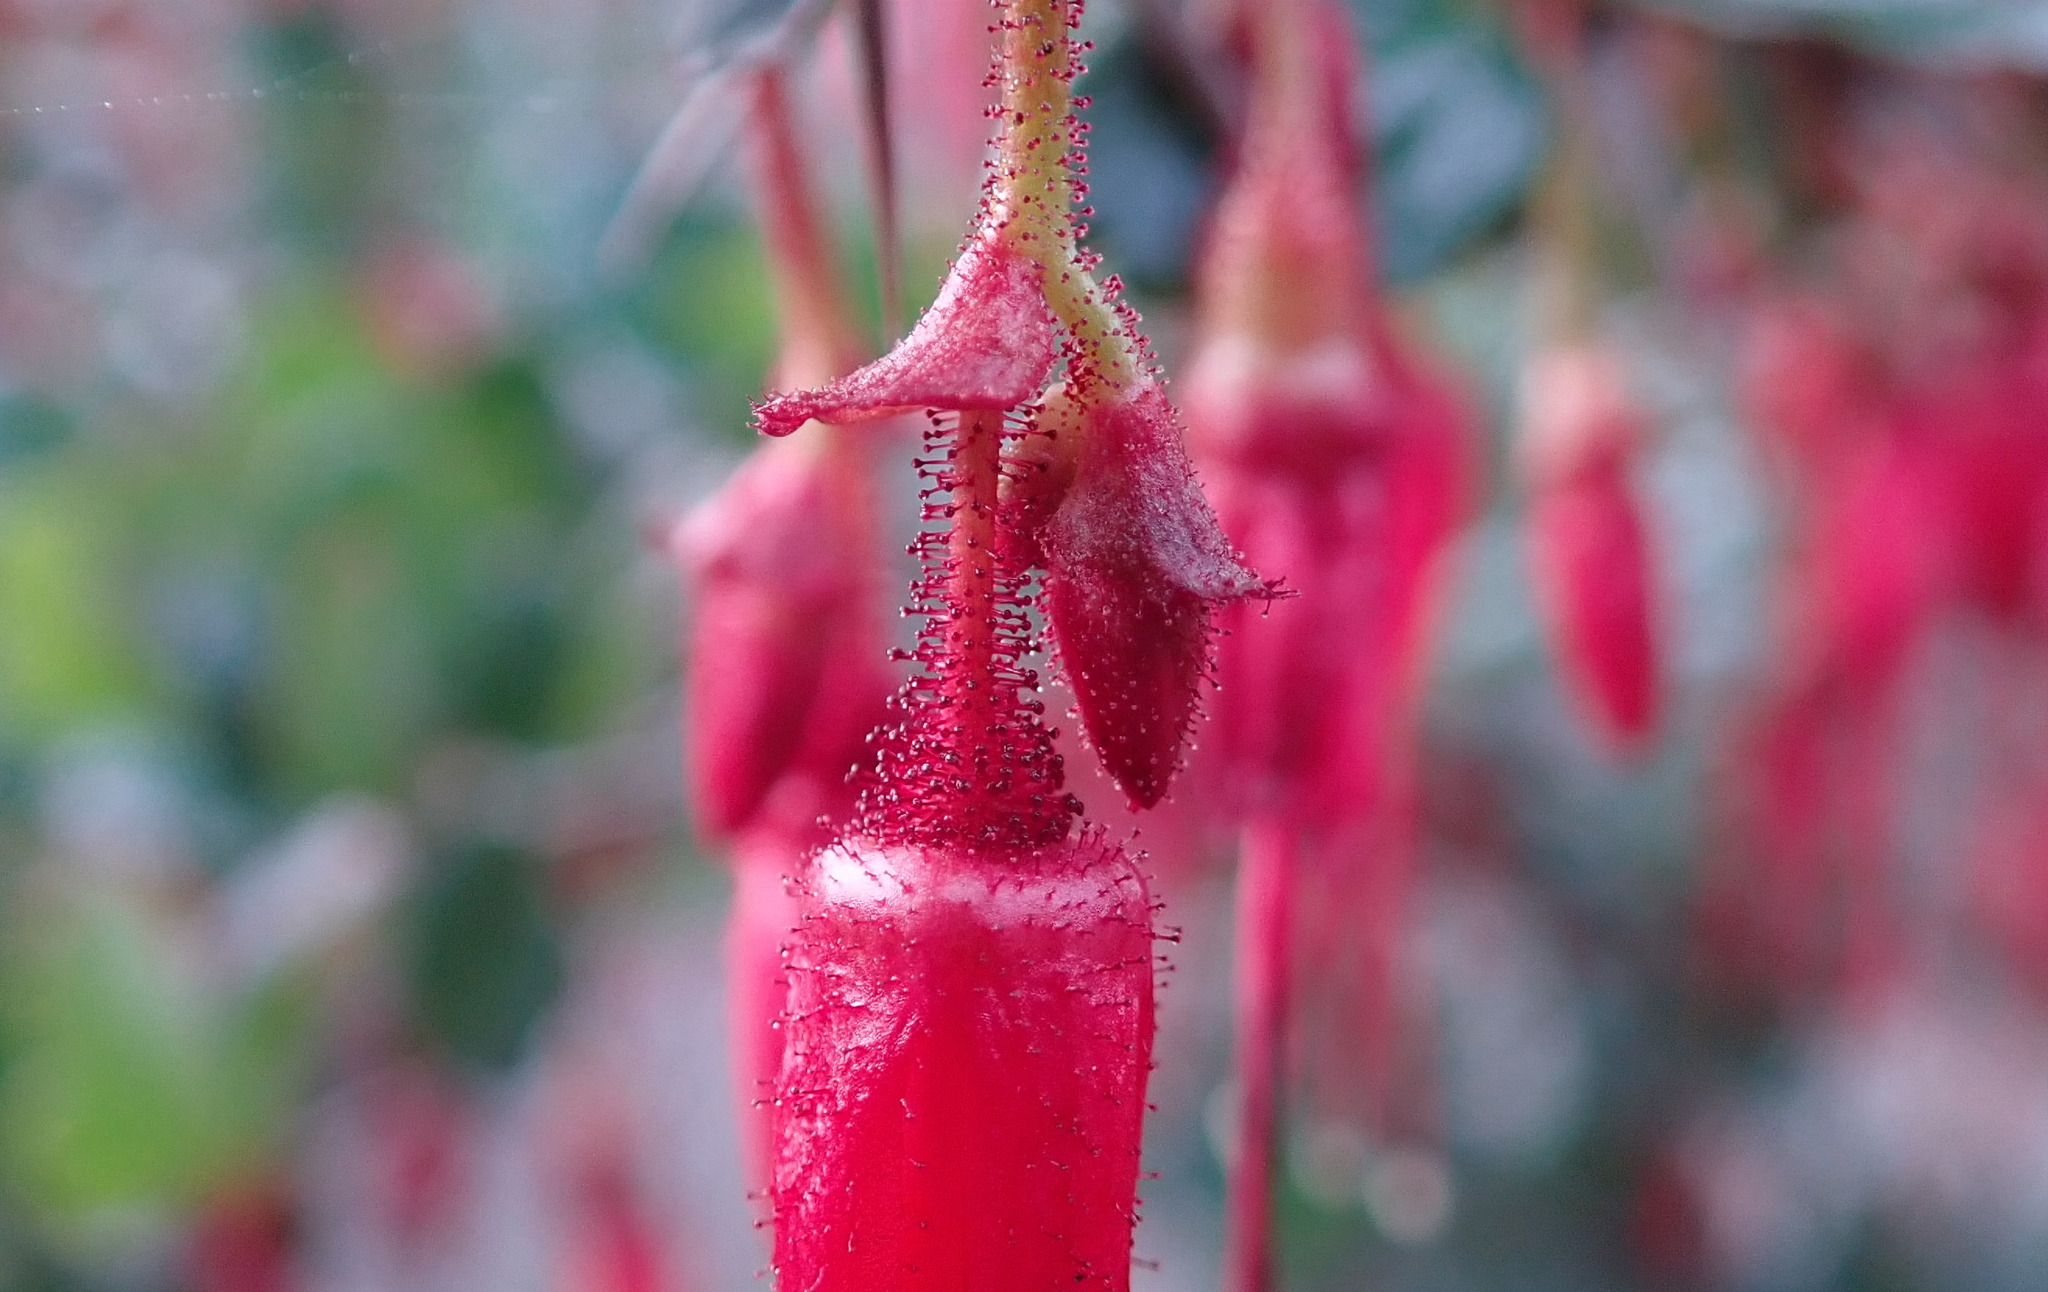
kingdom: Plantae
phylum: Tracheophyta
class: Magnoliopsida
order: Saxifragales
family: Grossulariaceae
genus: Ribes
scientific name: Ribes speciosum
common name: Fuchsia-flower gooseberry
